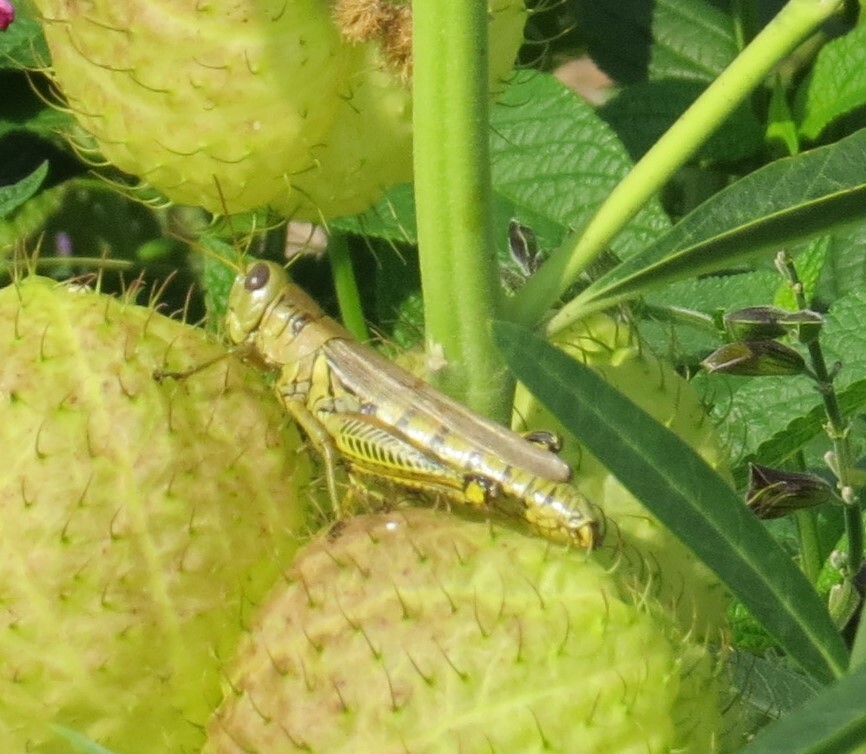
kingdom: Animalia
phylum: Arthropoda
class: Insecta
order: Orthoptera
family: Acrididae
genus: Melanoplus
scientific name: Melanoplus differentialis
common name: Differential grasshopper
